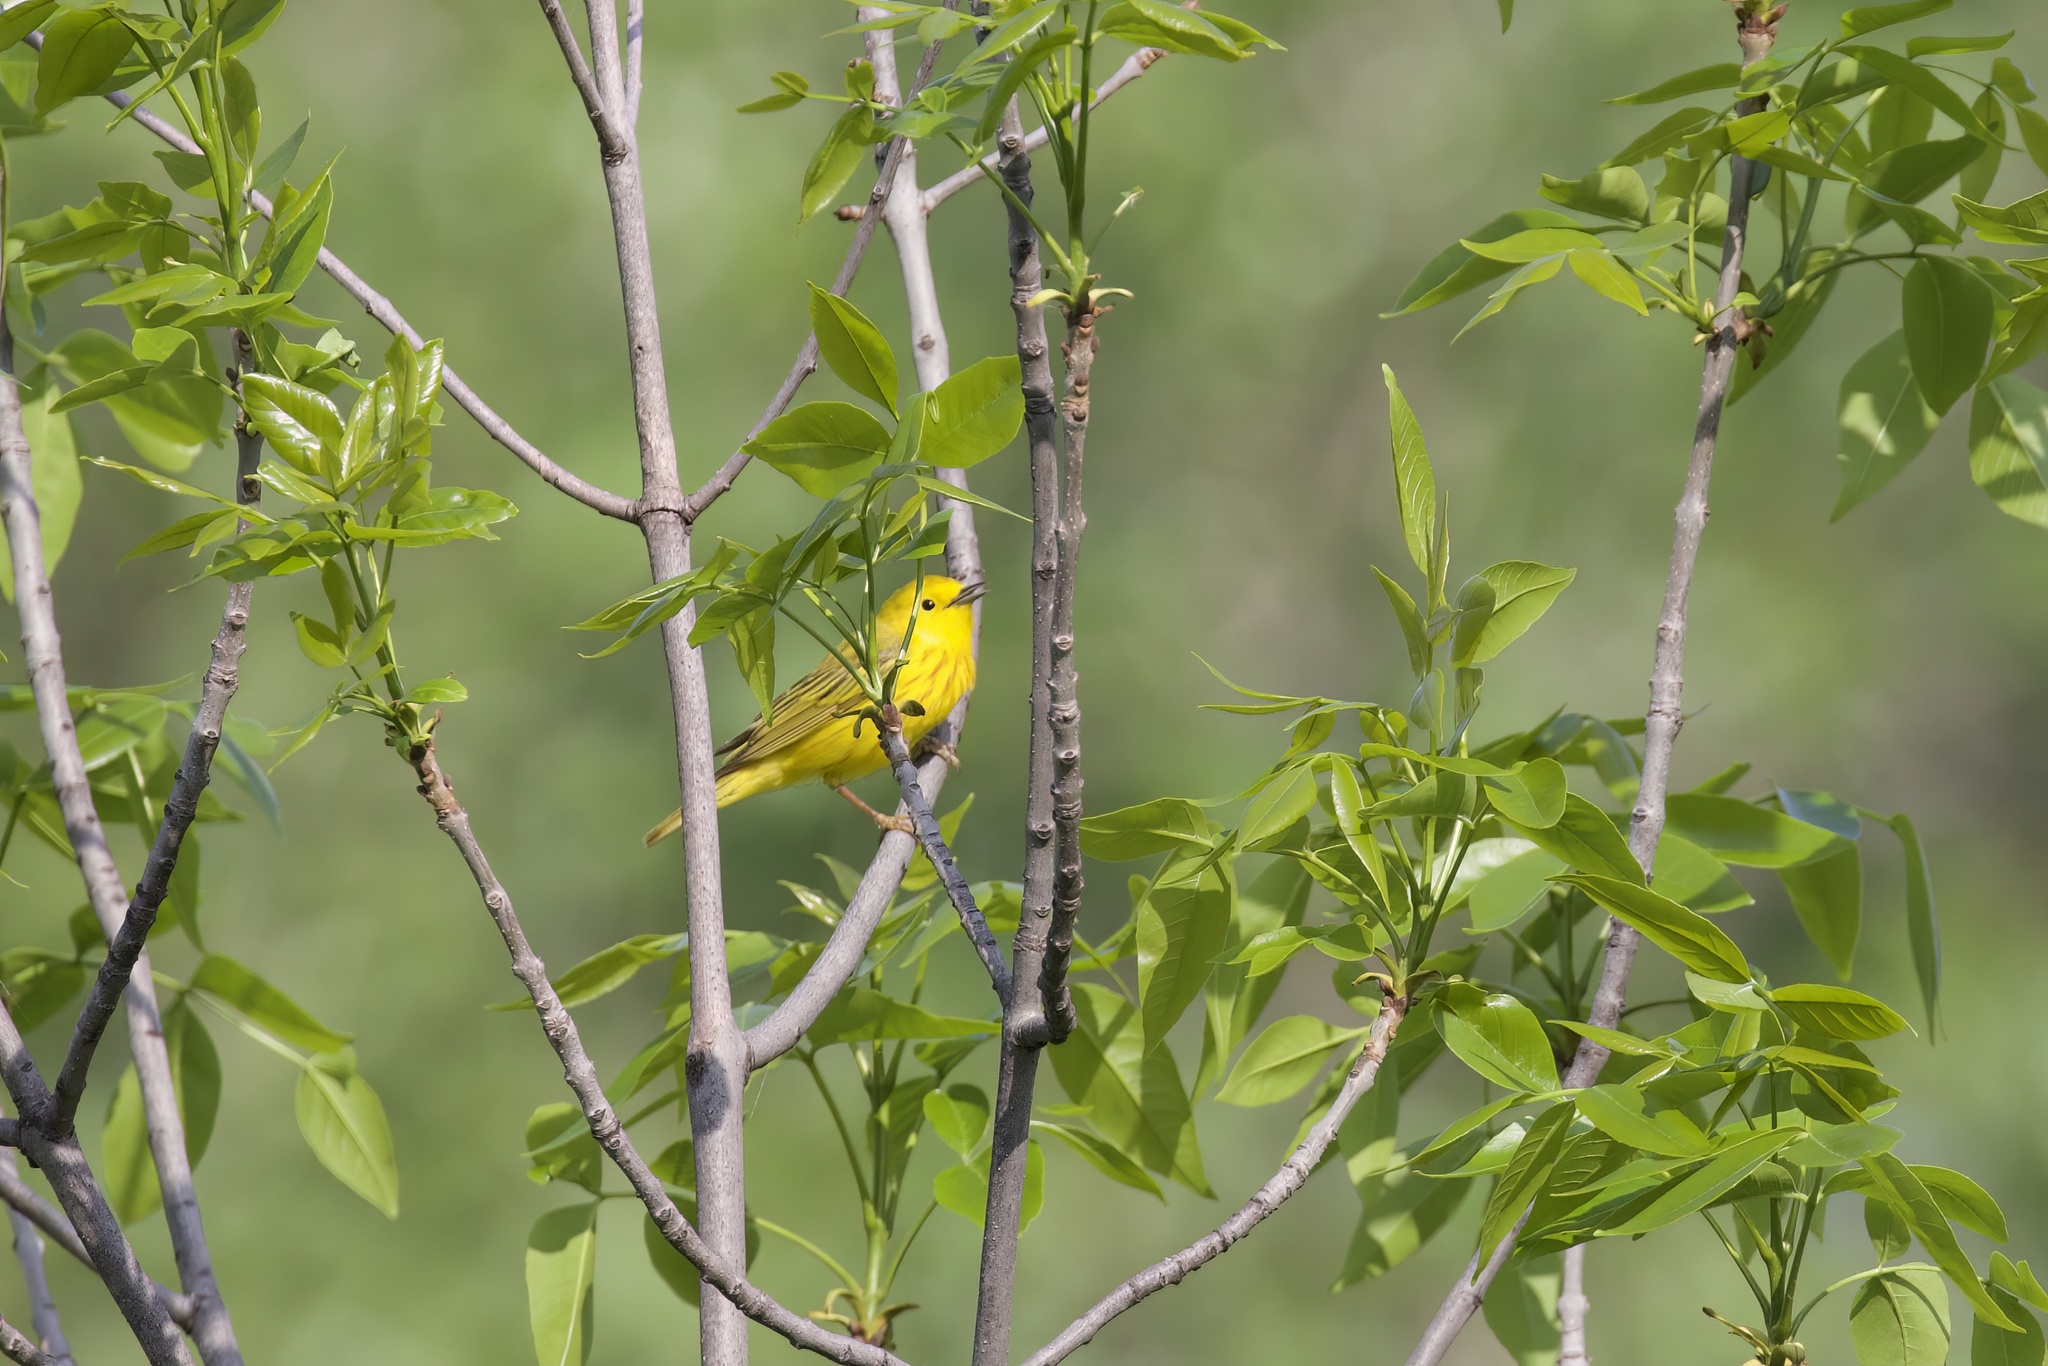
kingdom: Animalia
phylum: Chordata
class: Aves
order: Passeriformes
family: Parulidae
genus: Setophaga
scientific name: Setophaga petechia
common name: Yellow warbler
